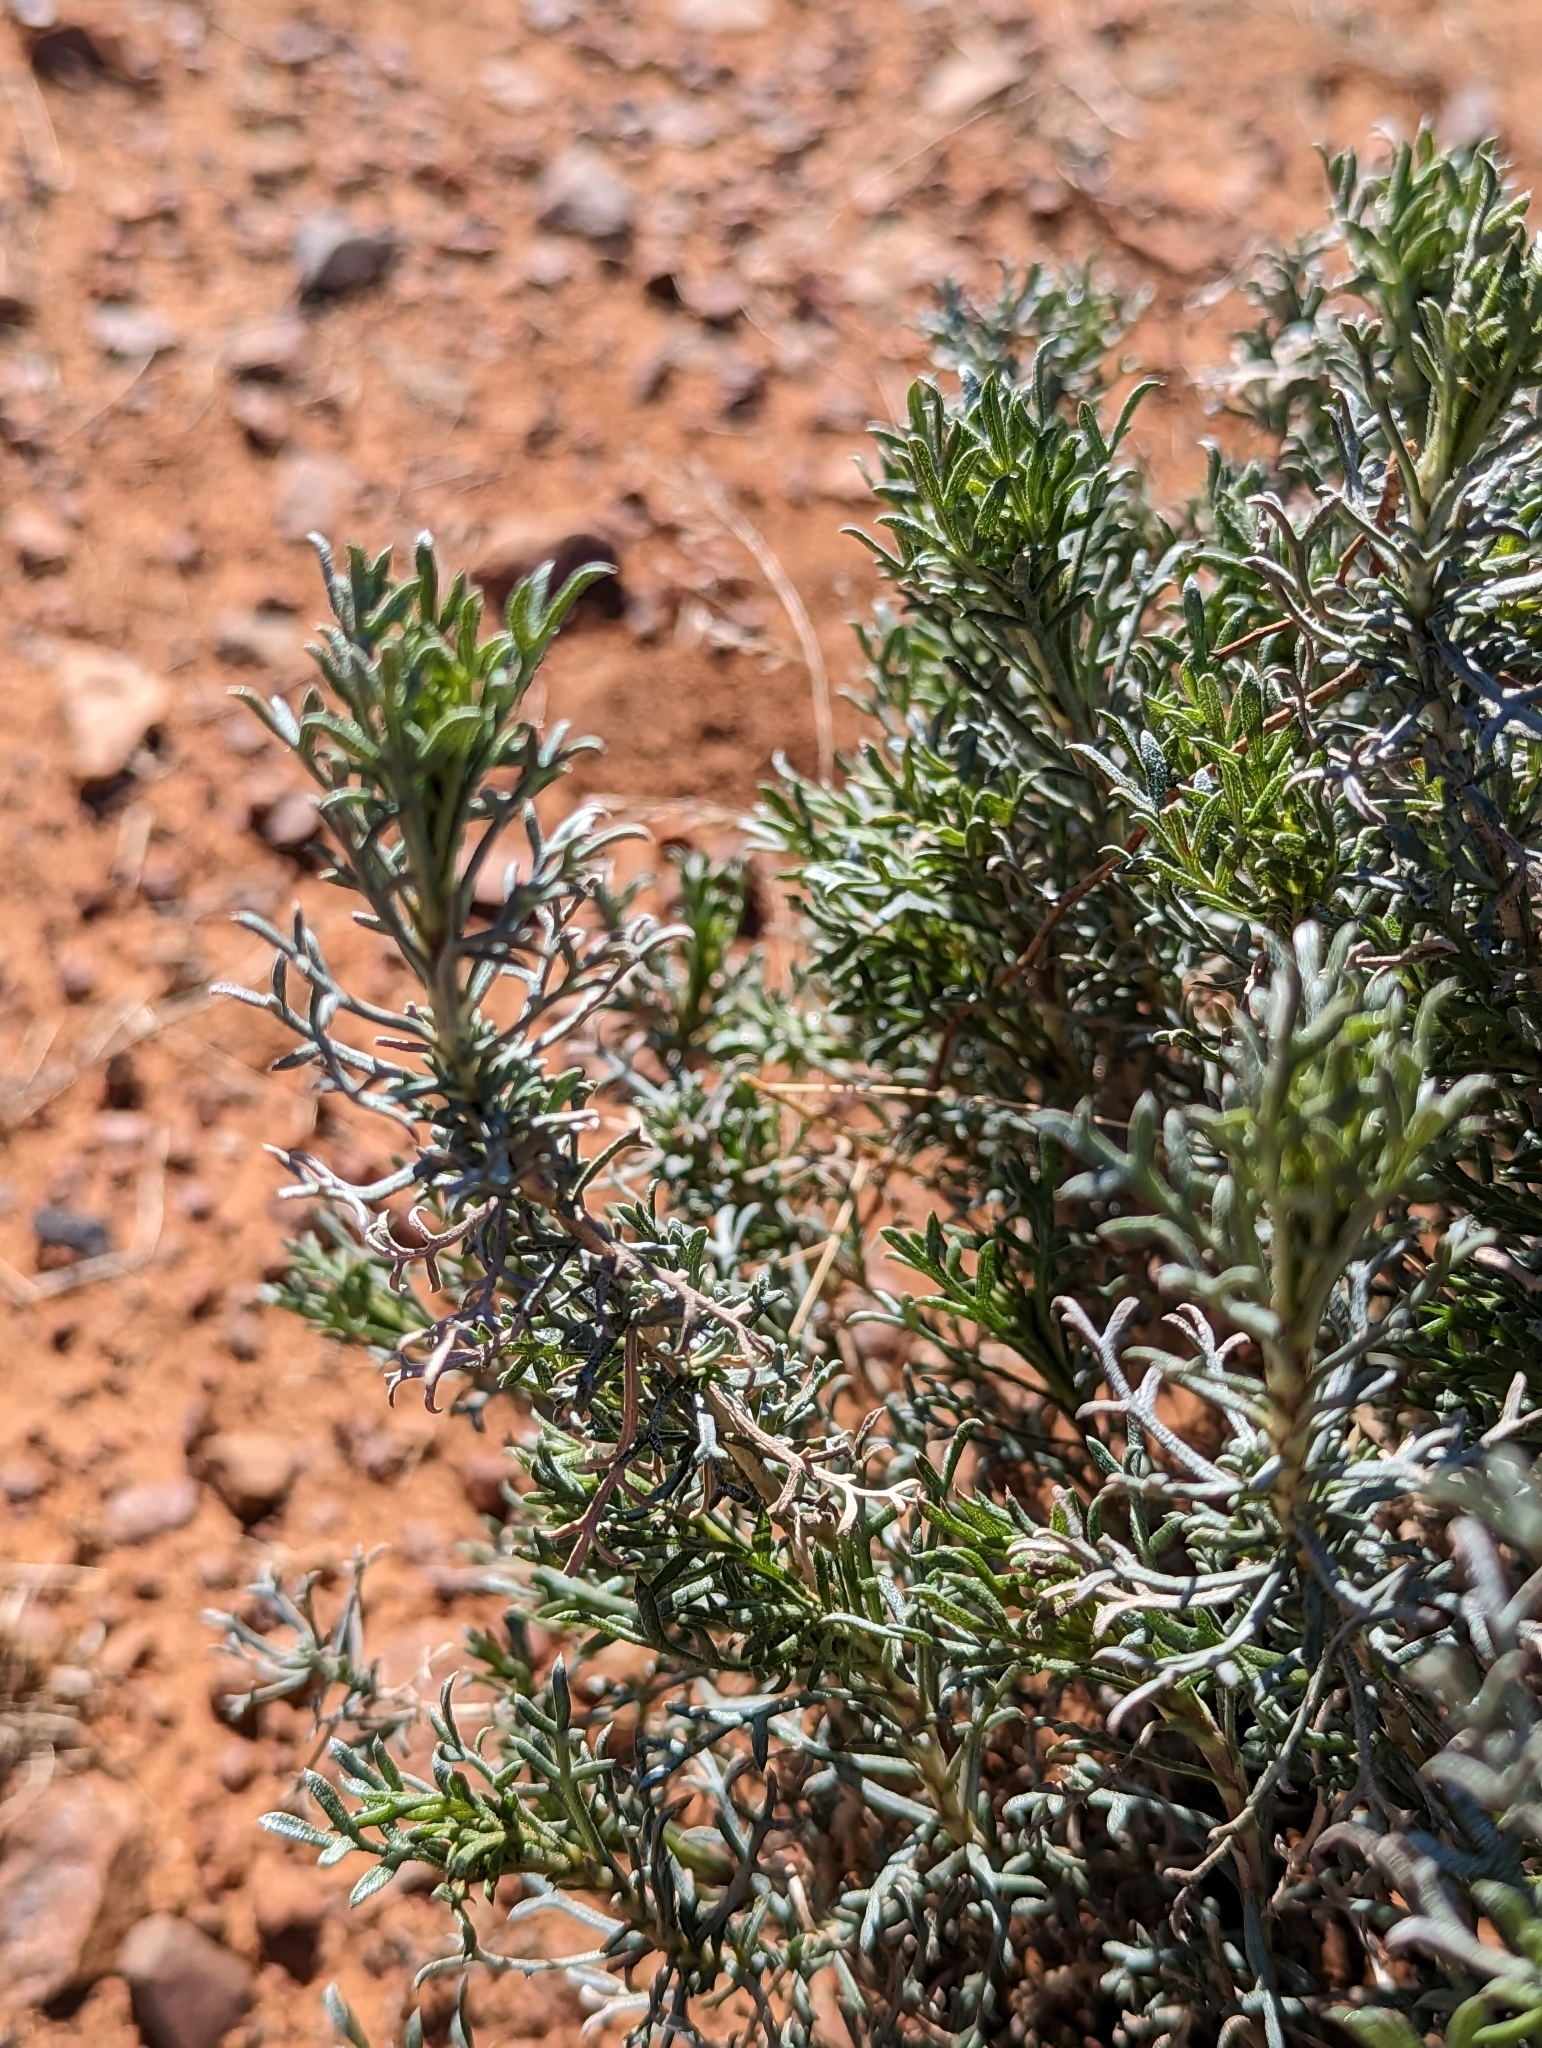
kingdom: Plantae
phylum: Tracheophyta
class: Magnoliopsida
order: Asterales
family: Asteraceae
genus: Isocoma
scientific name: Isocoma tenuisecta
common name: Burroweed
